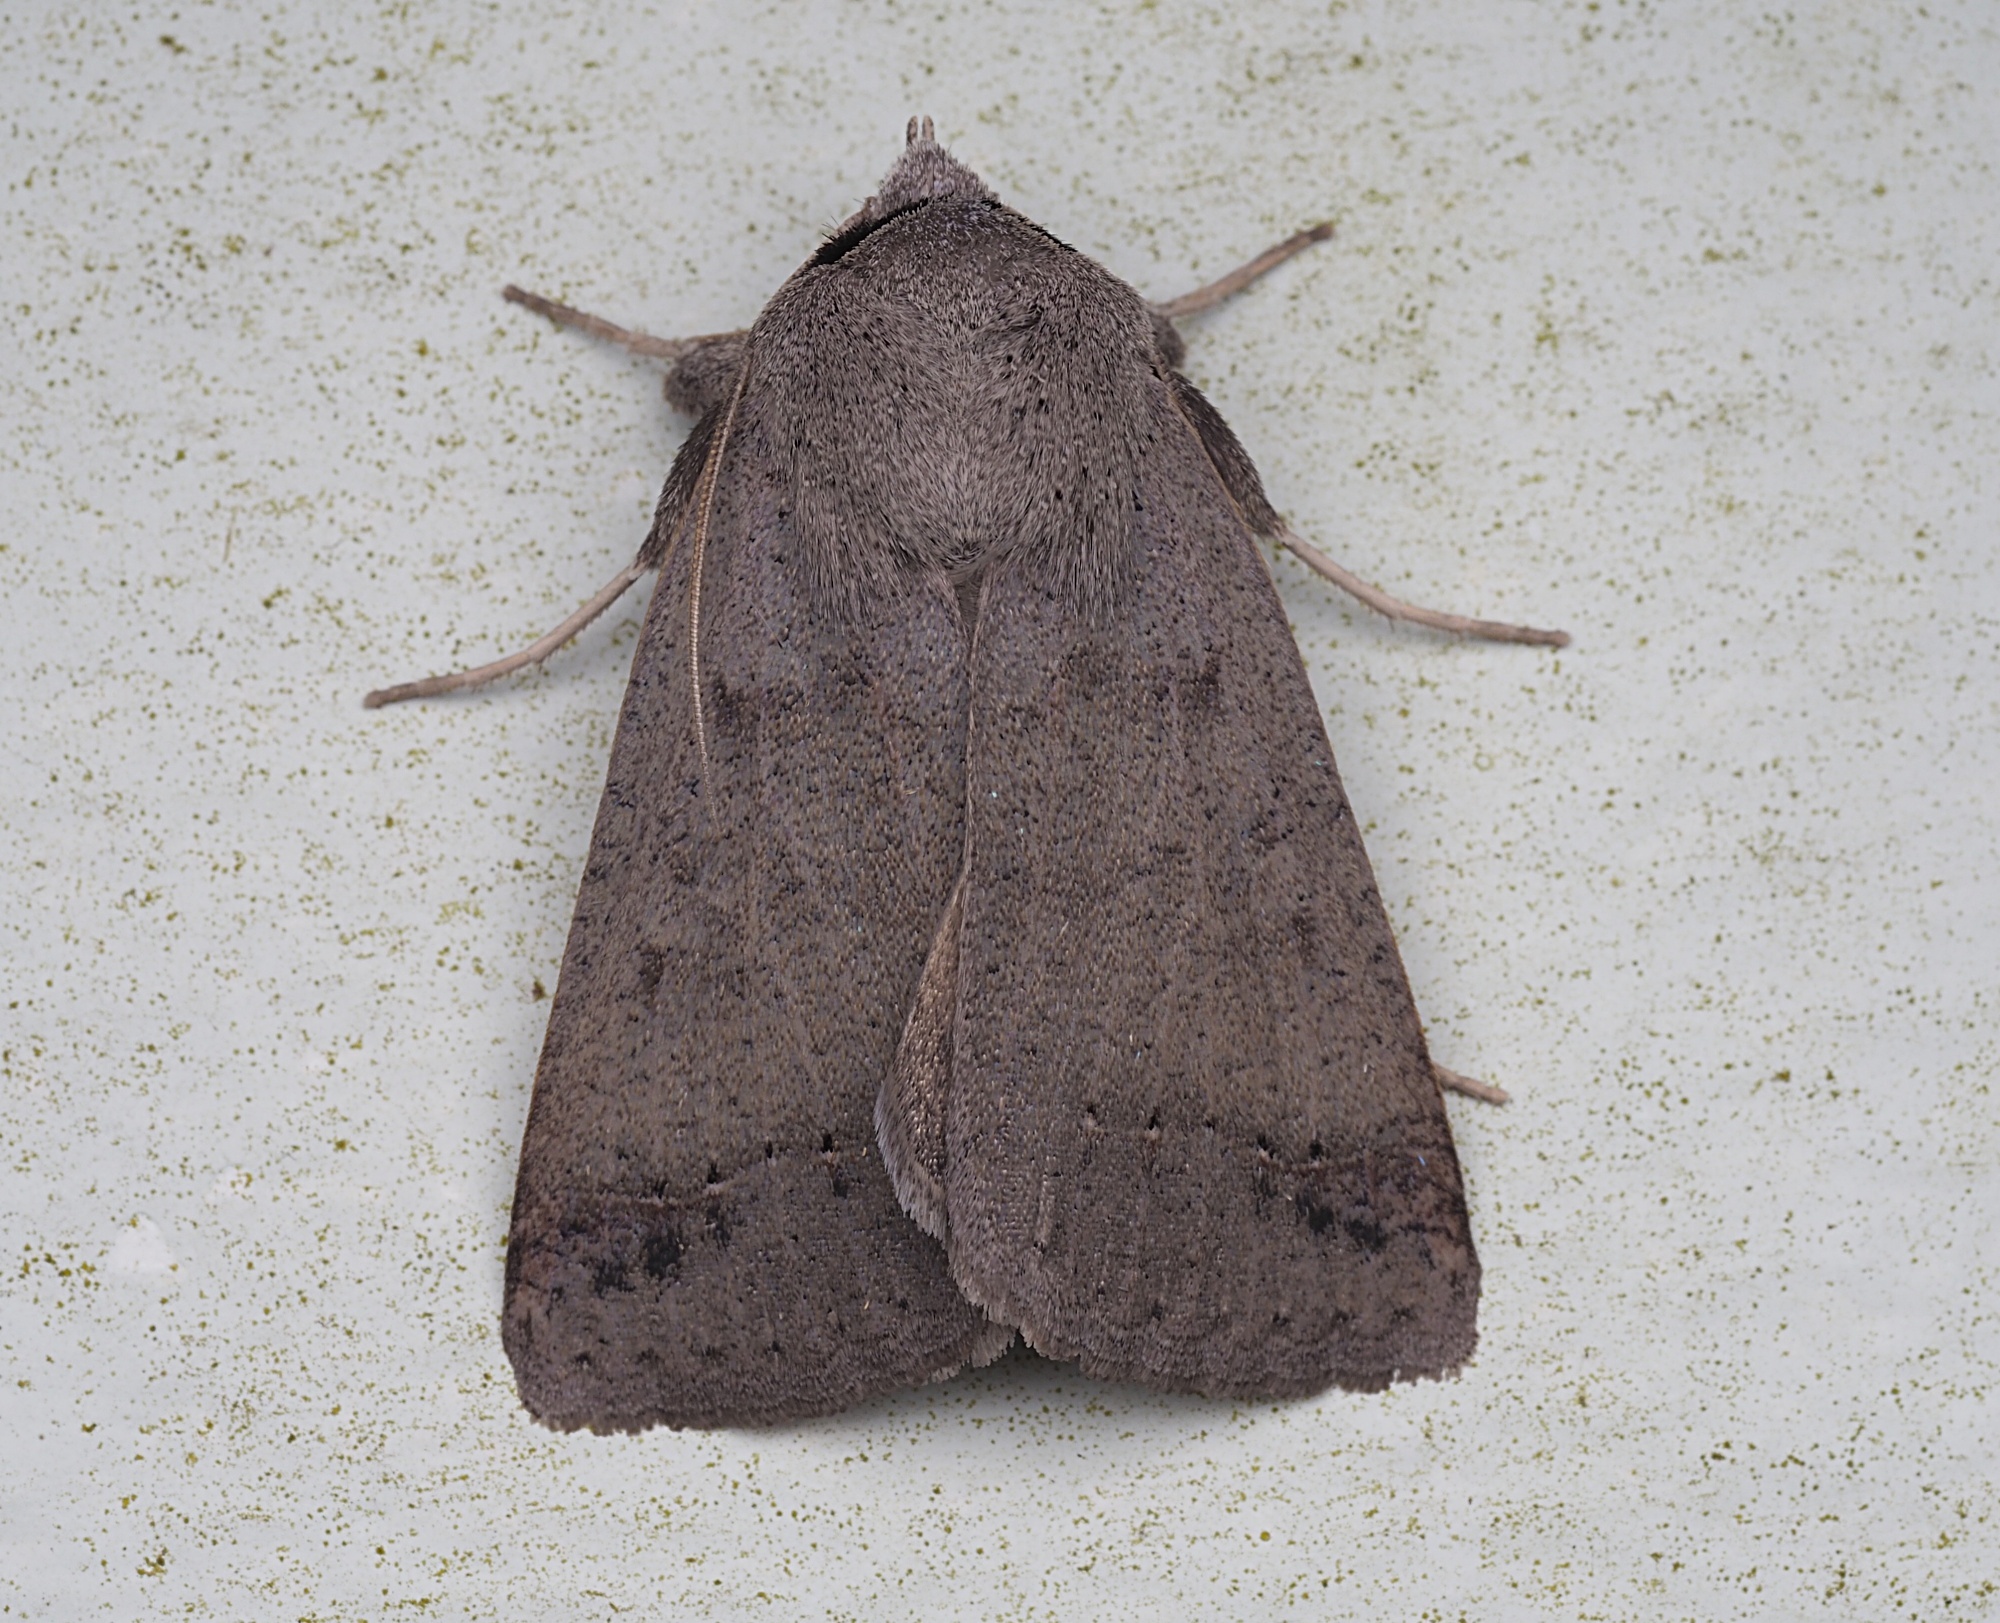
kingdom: Animalia
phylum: Arthropoda
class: Insecta
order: Lepidoptera
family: Erebidae
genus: Pantydia
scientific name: Pantydia sparsa
